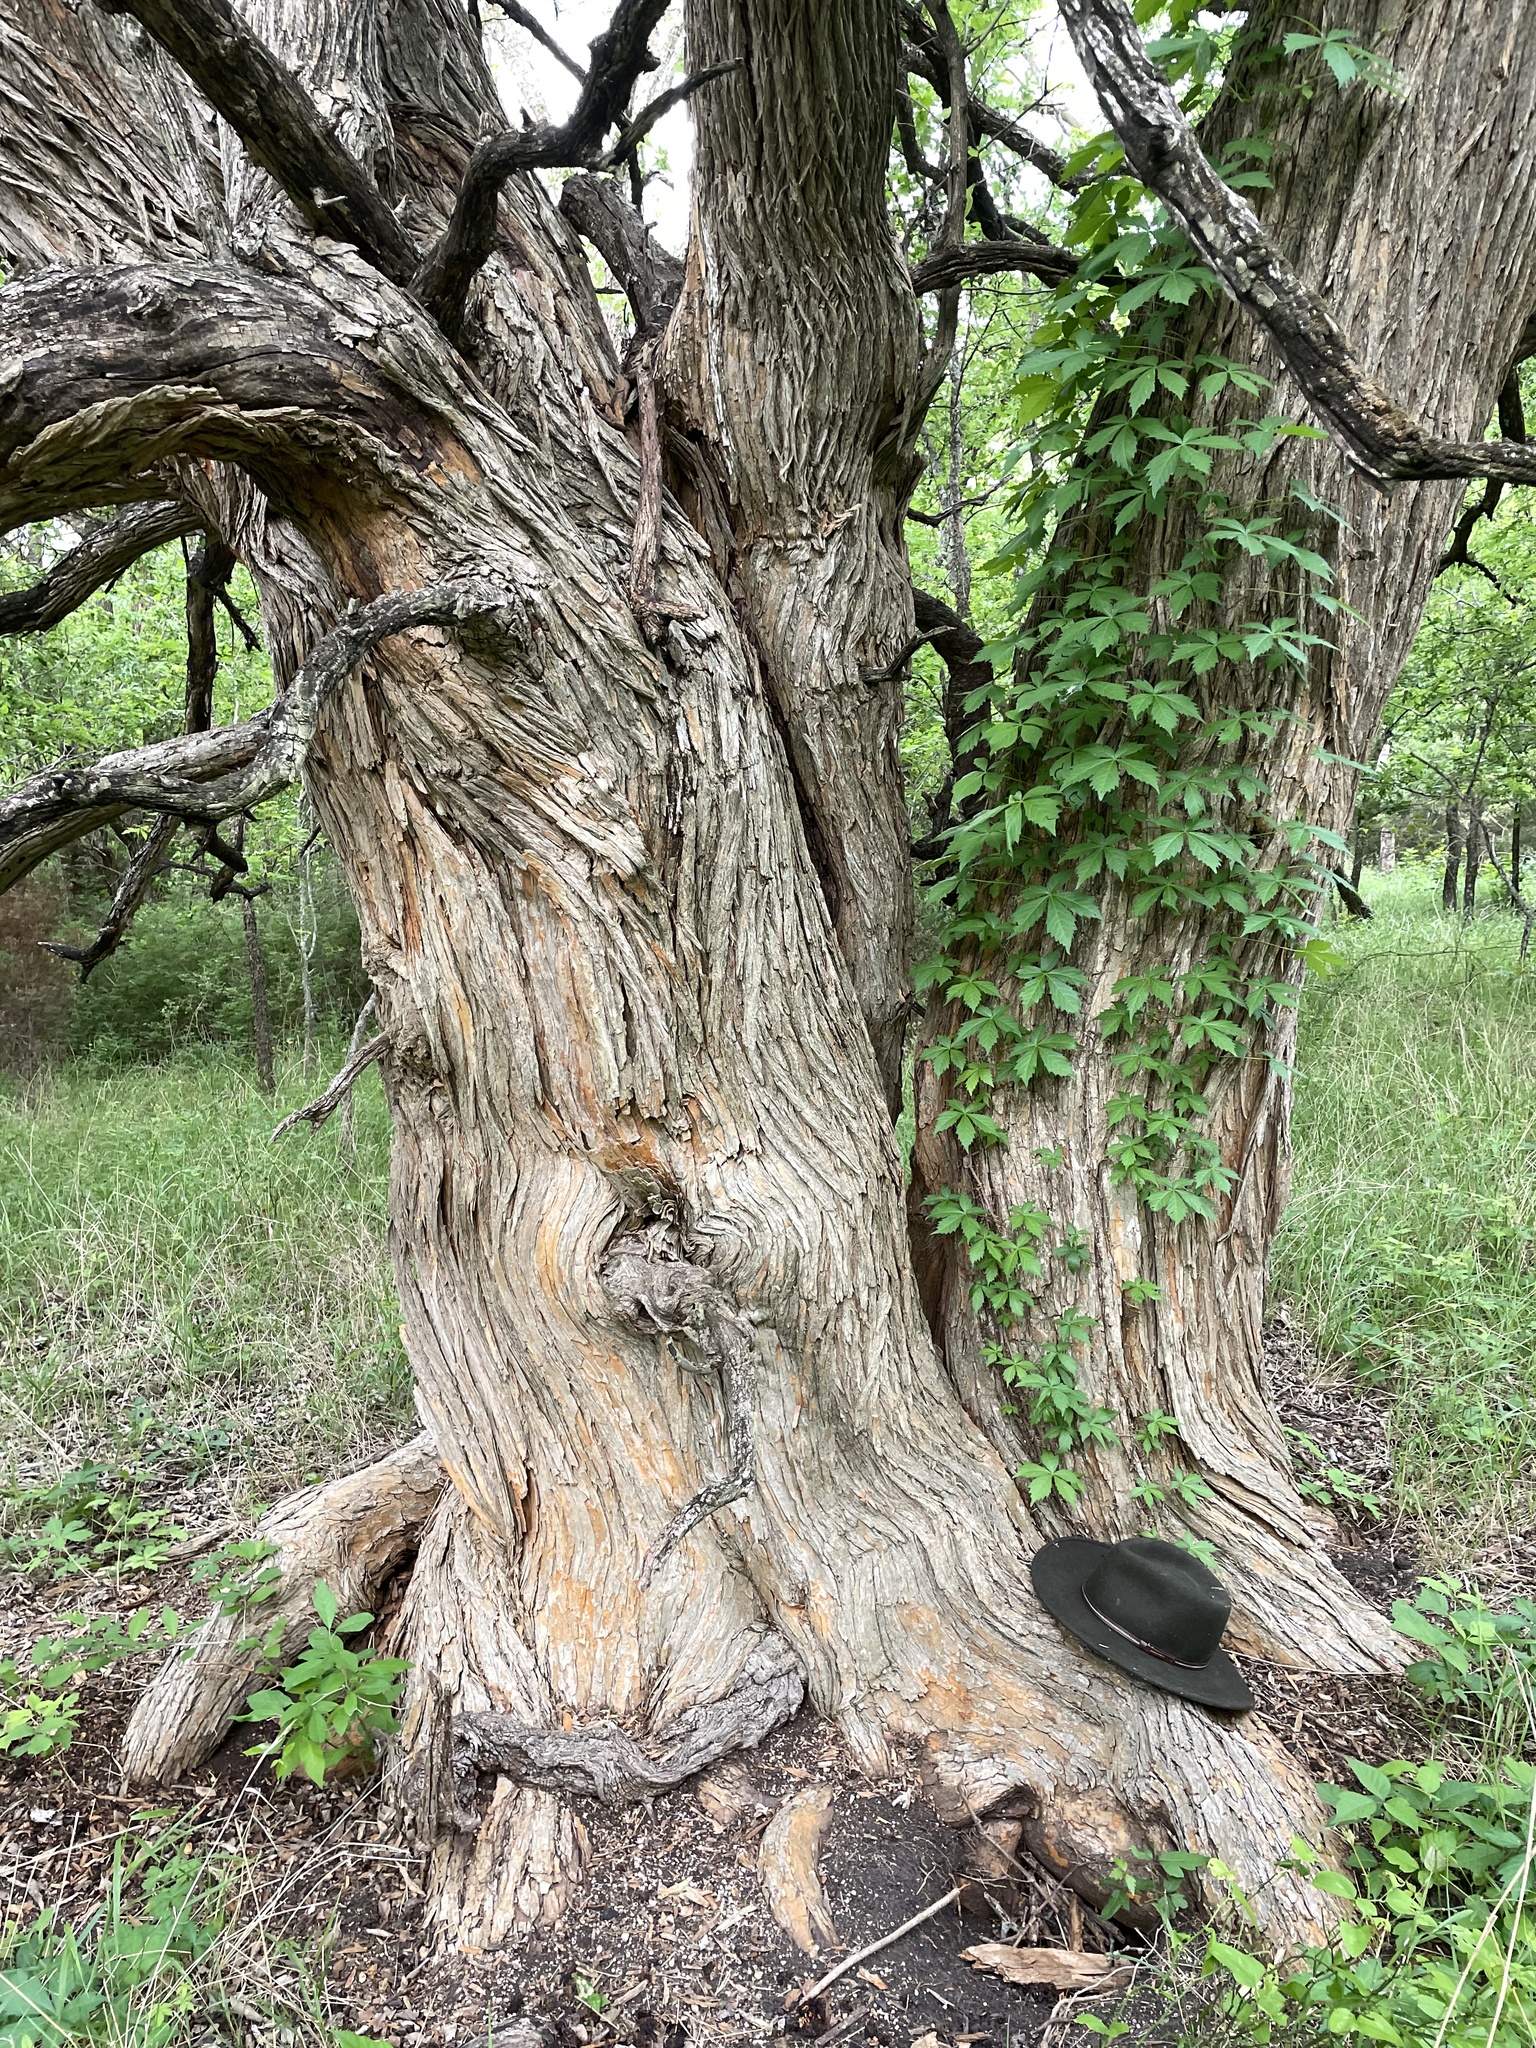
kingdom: Plantae
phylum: Tracheophyta
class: Magnoliopsida
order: Rosales
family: Moraceae
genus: Maclura
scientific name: Maclura pomifera
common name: Osage-orange
